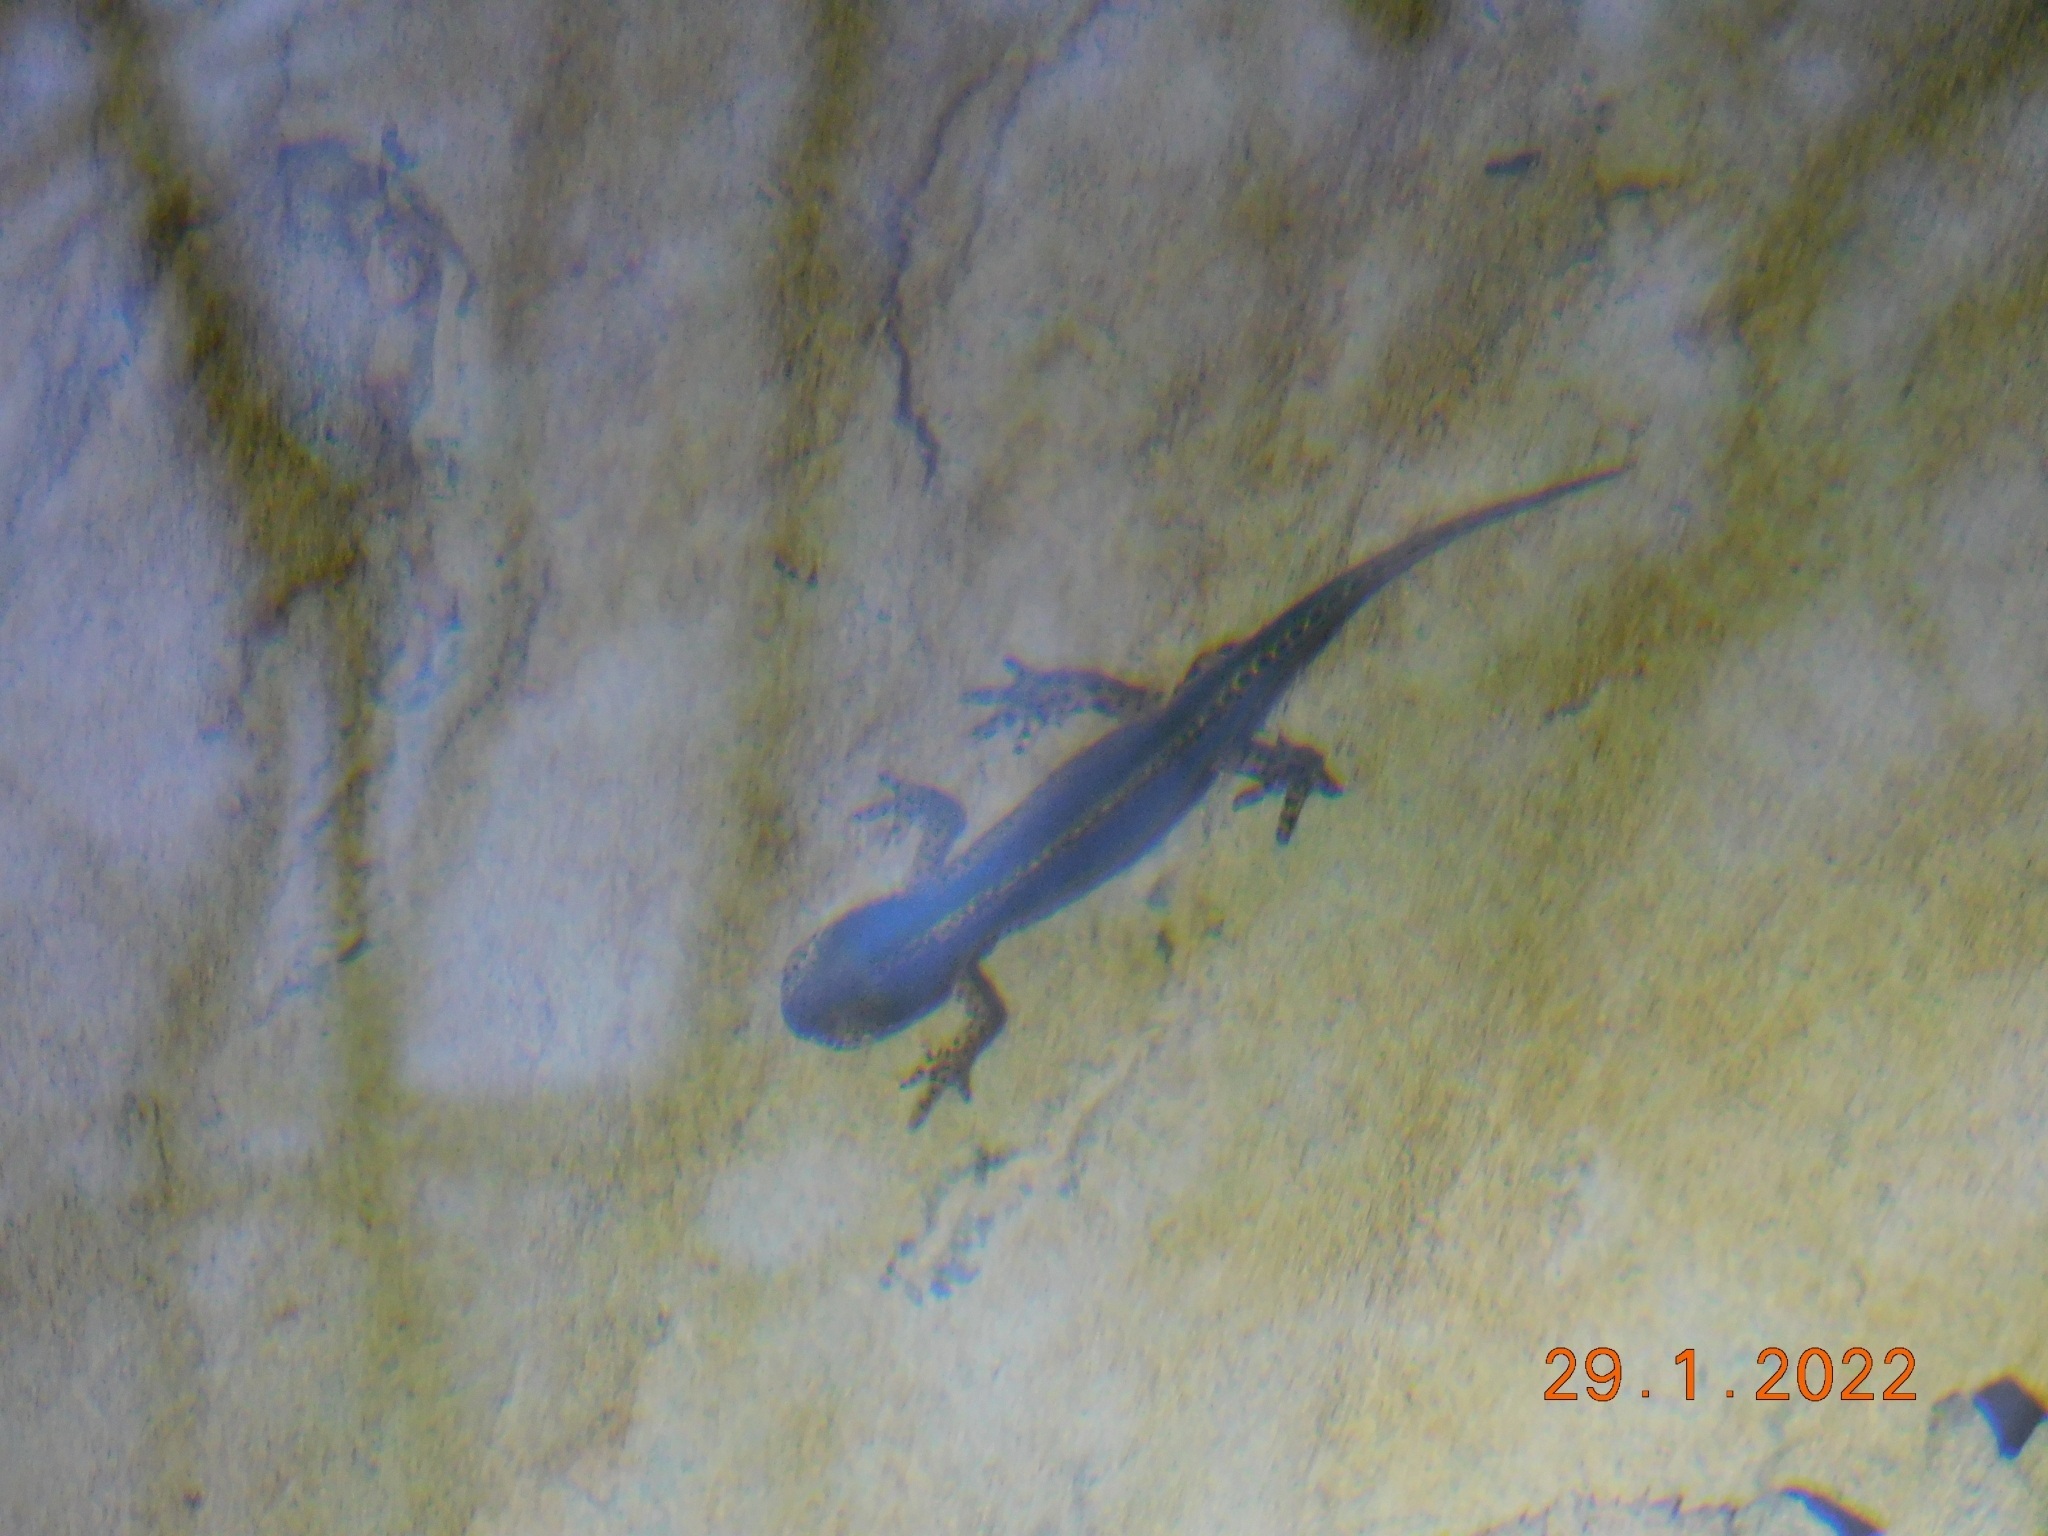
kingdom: Animalia
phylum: Chordata
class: Amphibia
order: Caudata
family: Salamandridae
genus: Ichthyosaura
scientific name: Ichthyosaura alpestris
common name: Alpine newt
